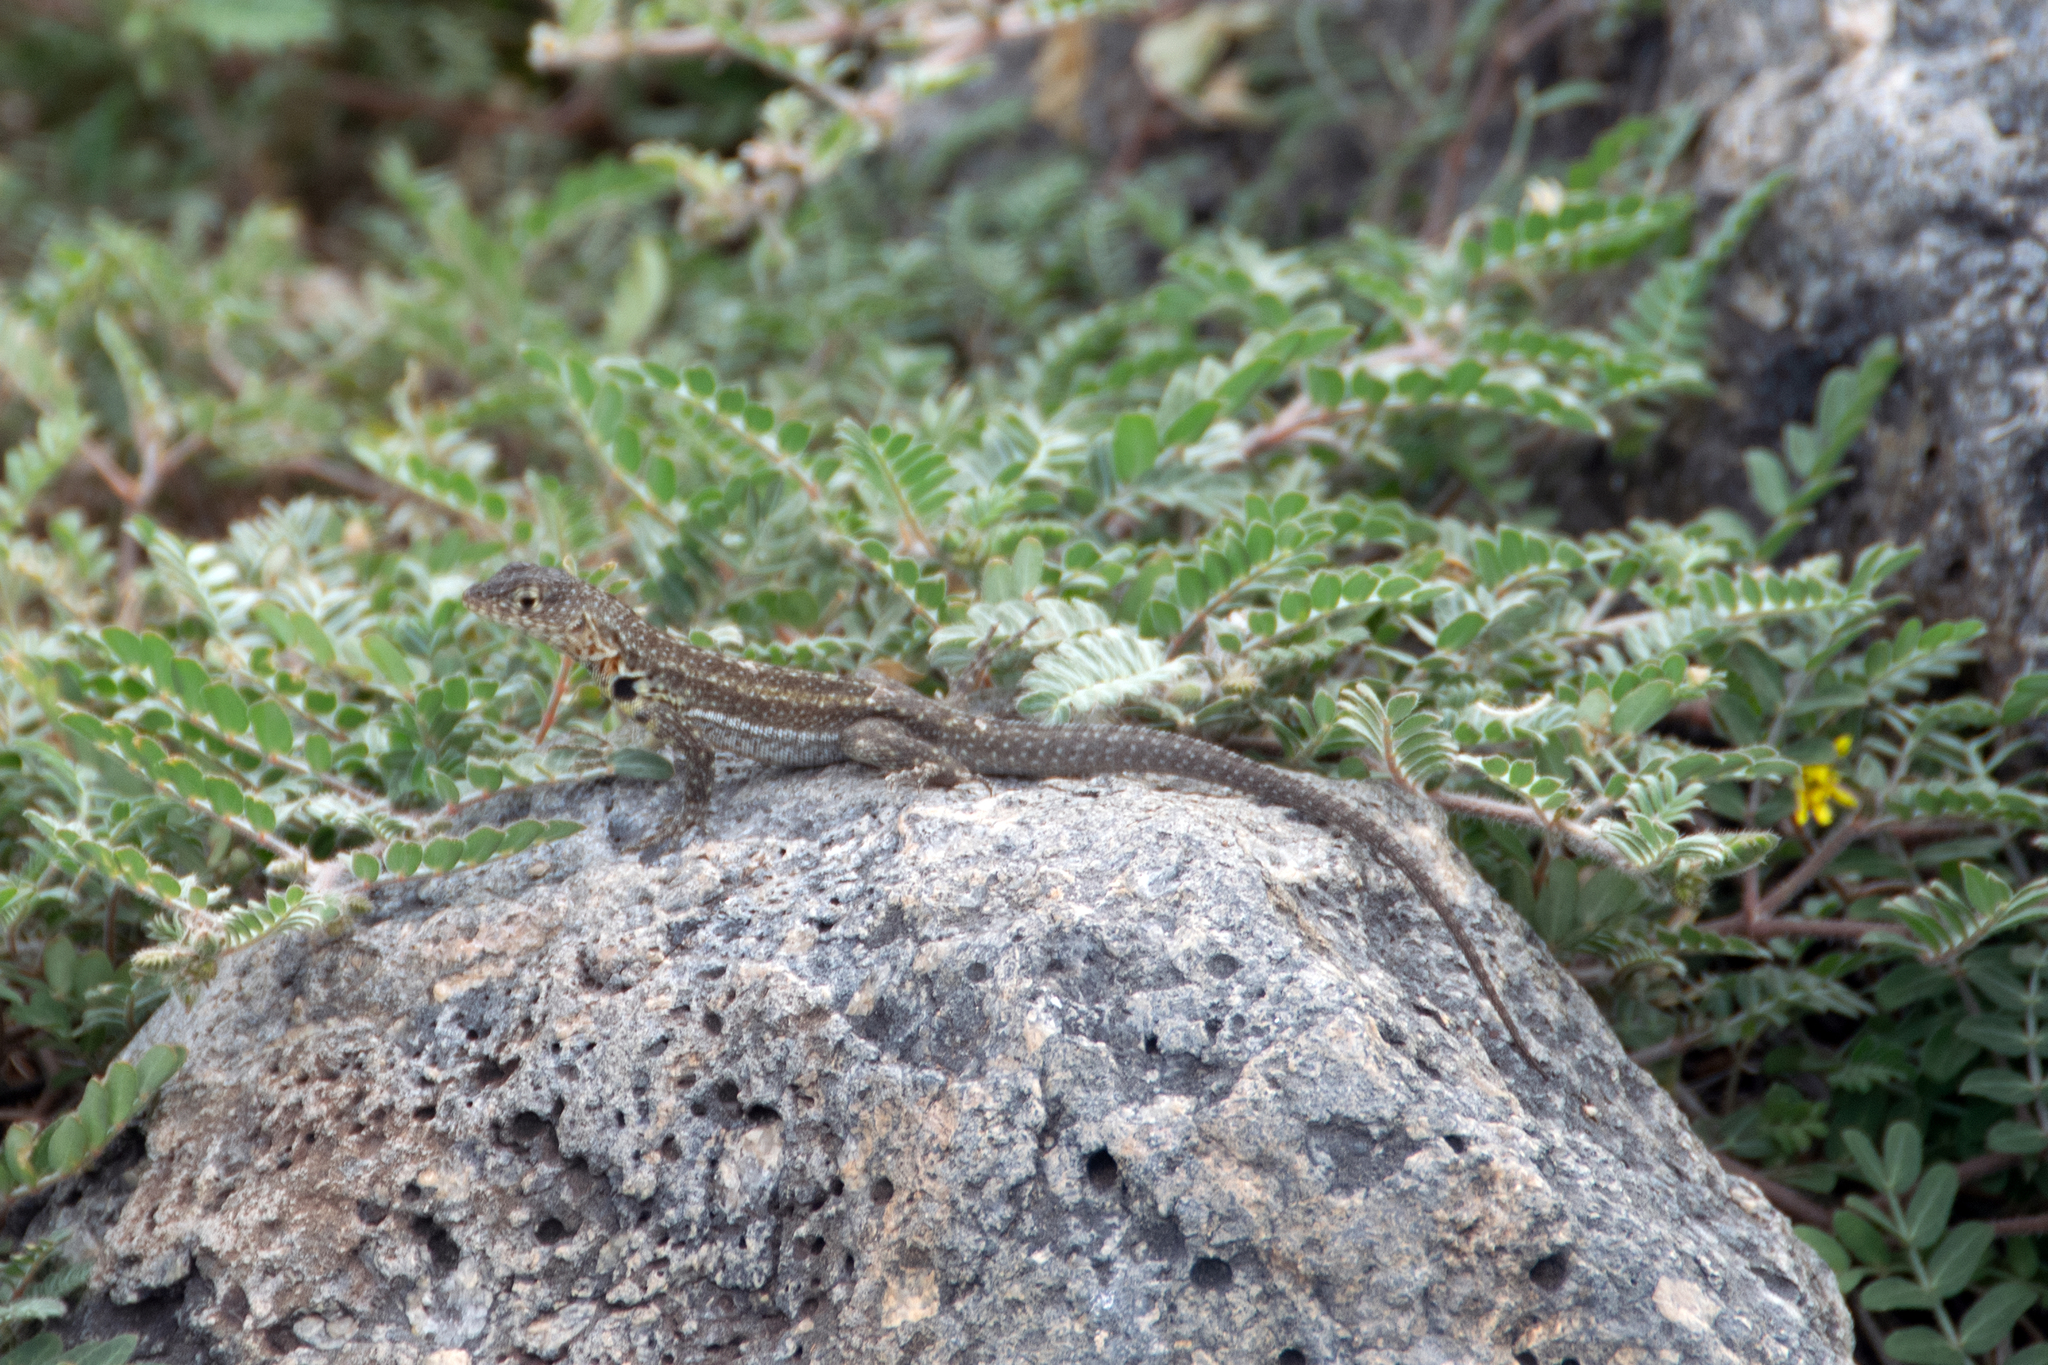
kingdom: Animalia
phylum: Chordata
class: Squamata
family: Tropiduridae
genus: Microlophus
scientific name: Microlophus indefatigabilis
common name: Galapagos lava lizard
